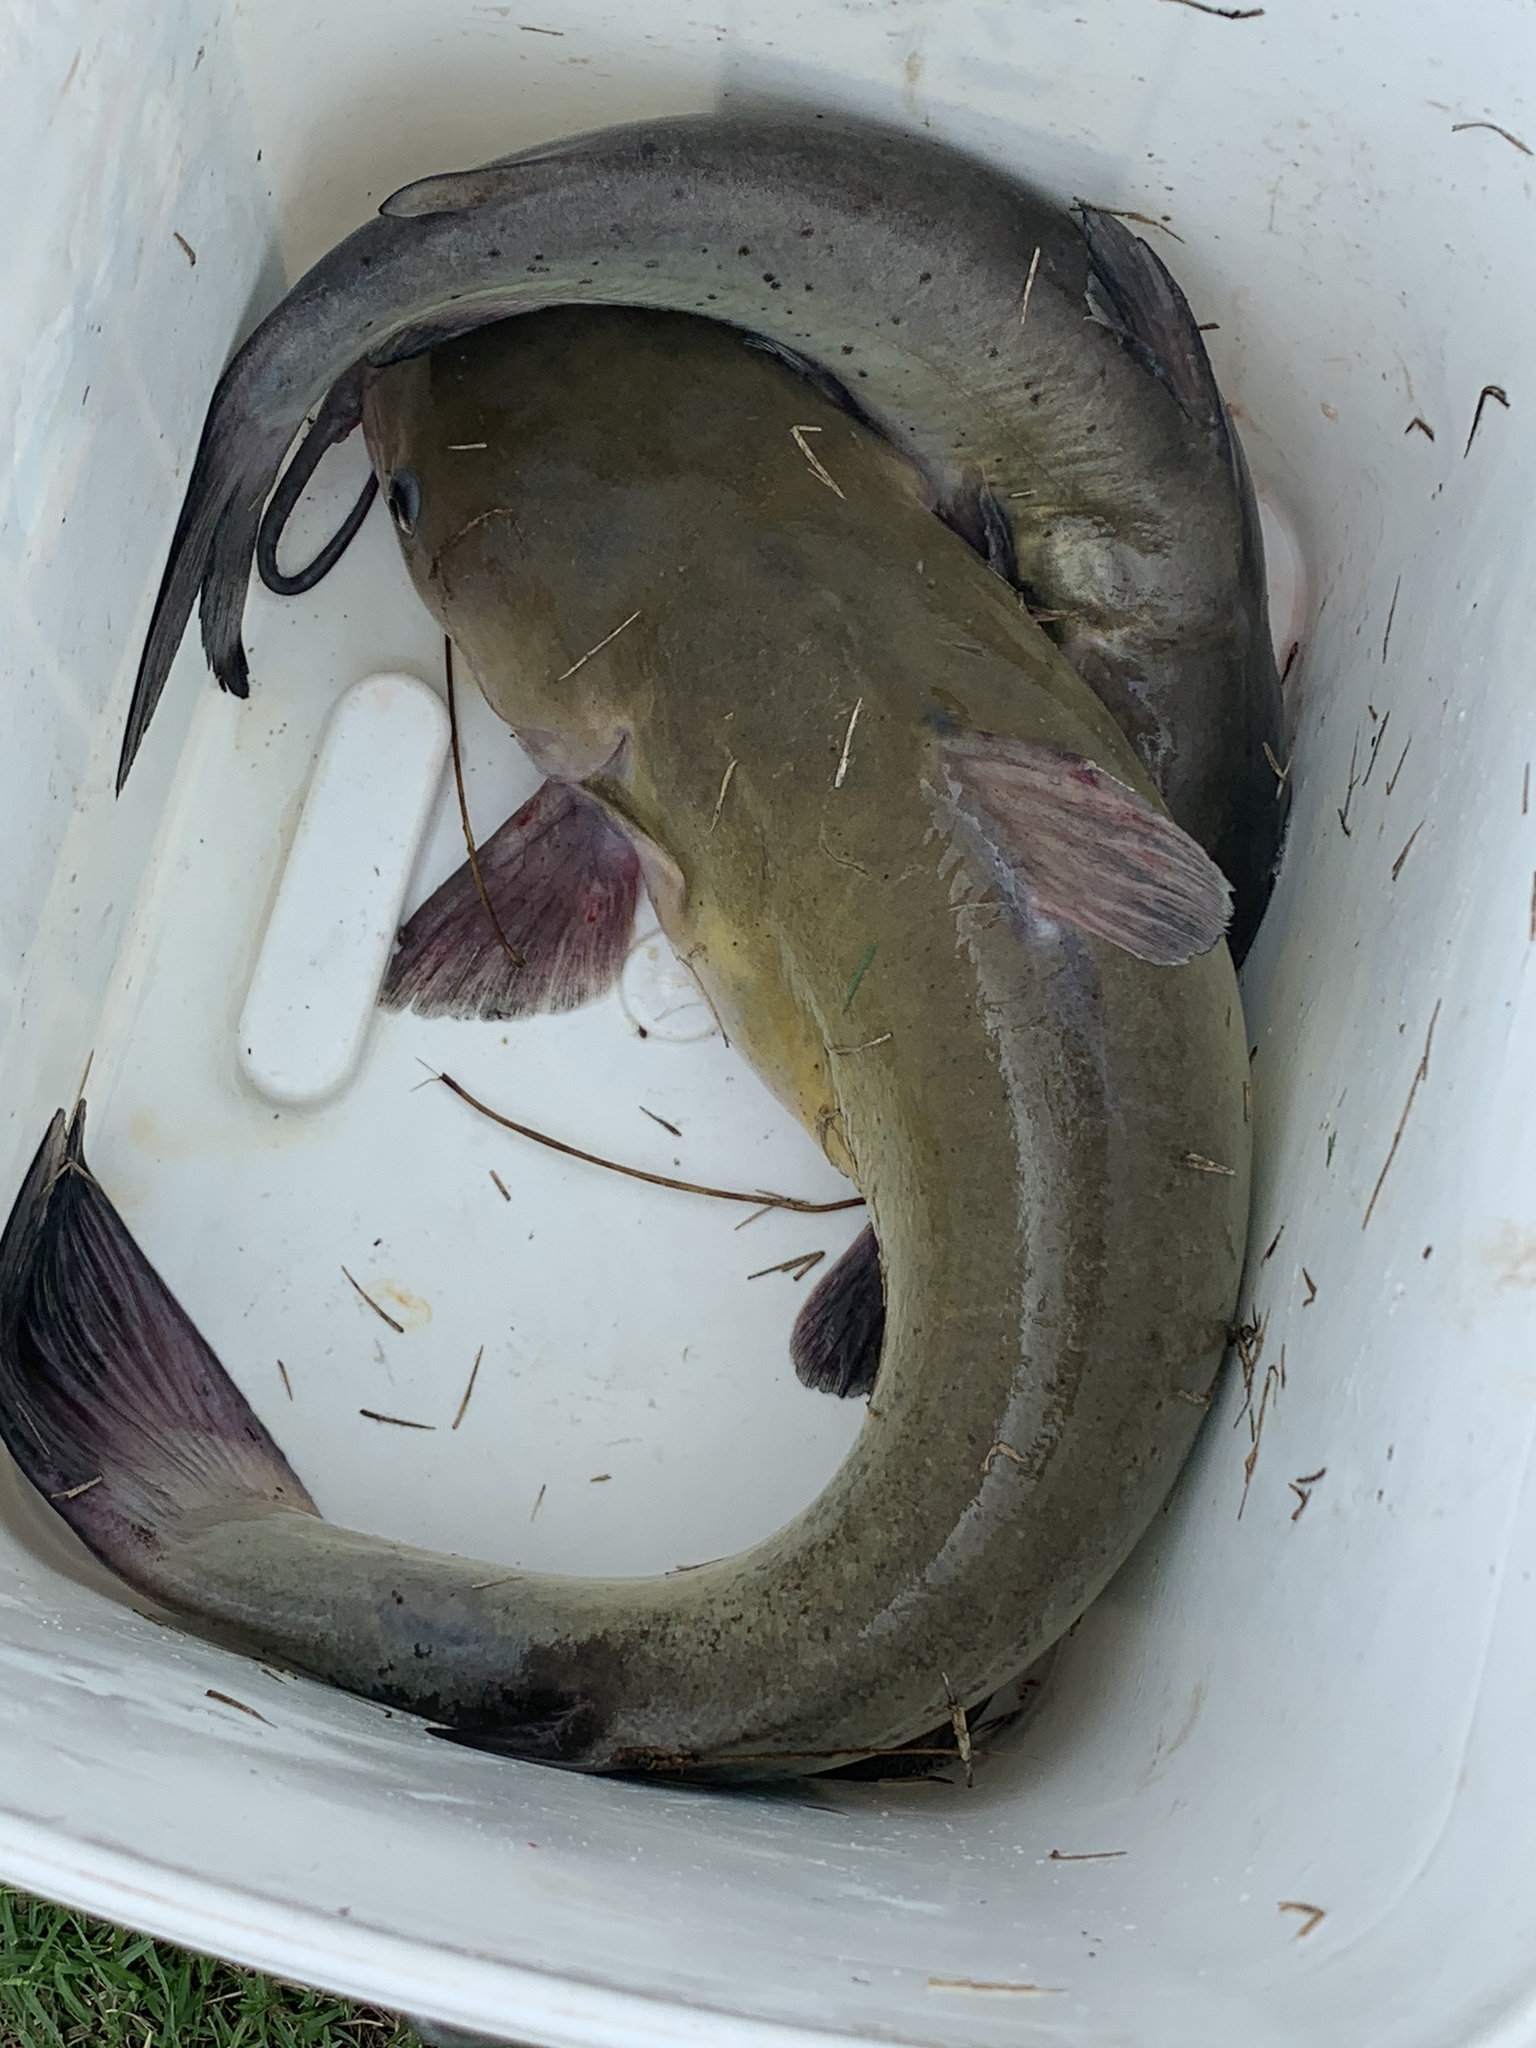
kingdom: Animalia
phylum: Chordata
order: Siluriformes
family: Ictaluridae
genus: Ictalurus
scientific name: Ictalurus punctatus
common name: Channel catfish
